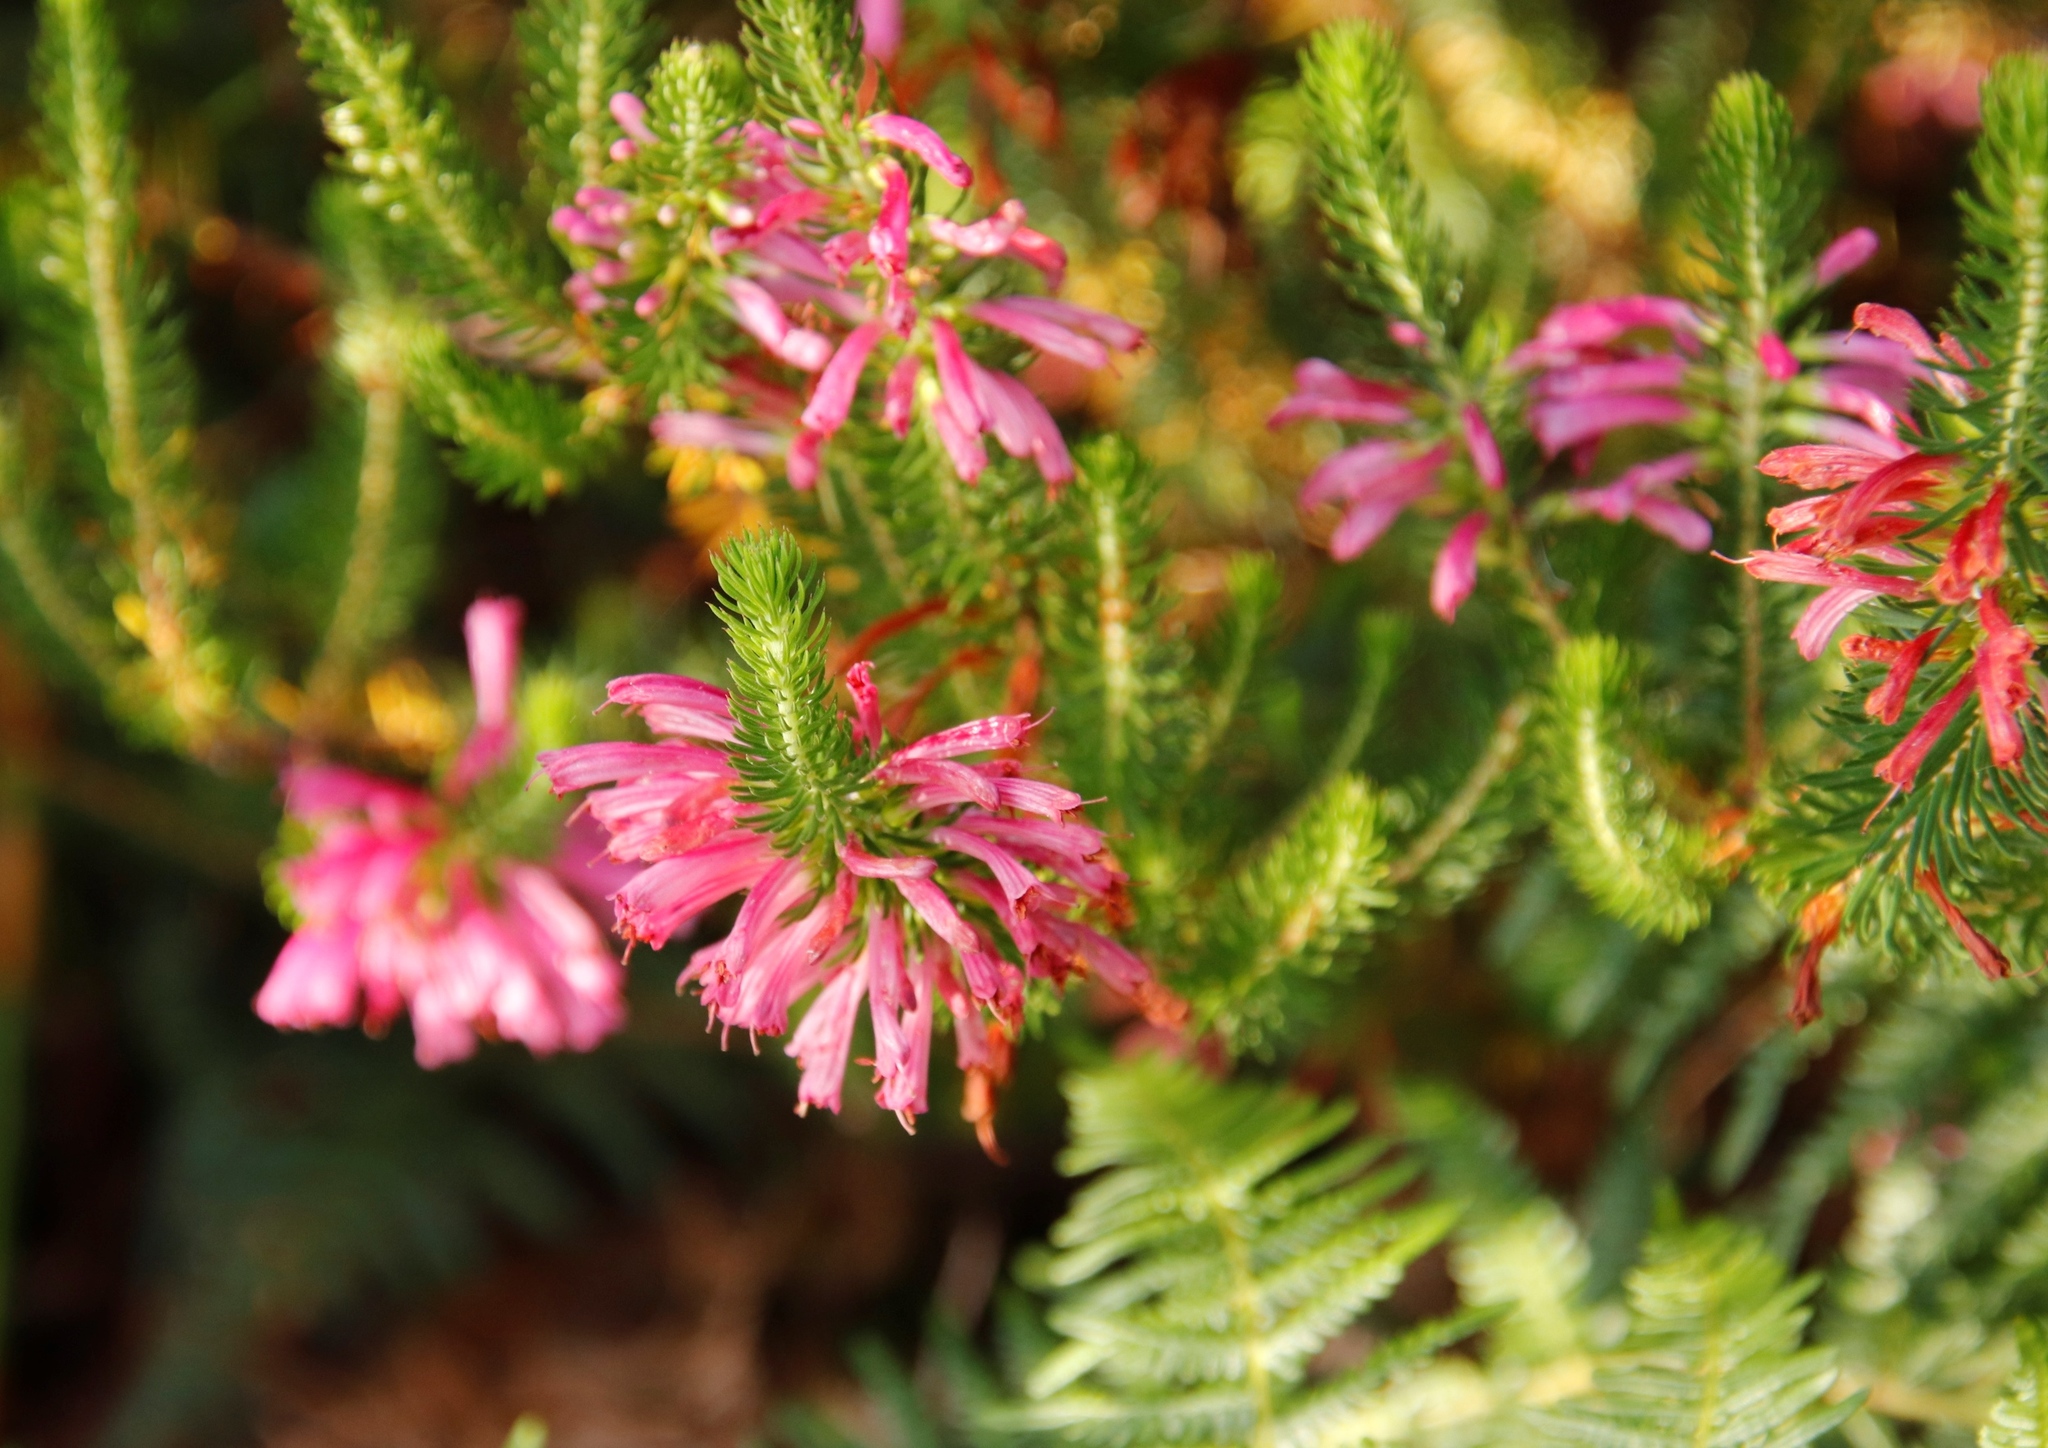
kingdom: Plantae
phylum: Tracheophyta
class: Magnoliopsida
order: Ericales
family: Ericaceae
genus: Erica
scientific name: Erica abietina
